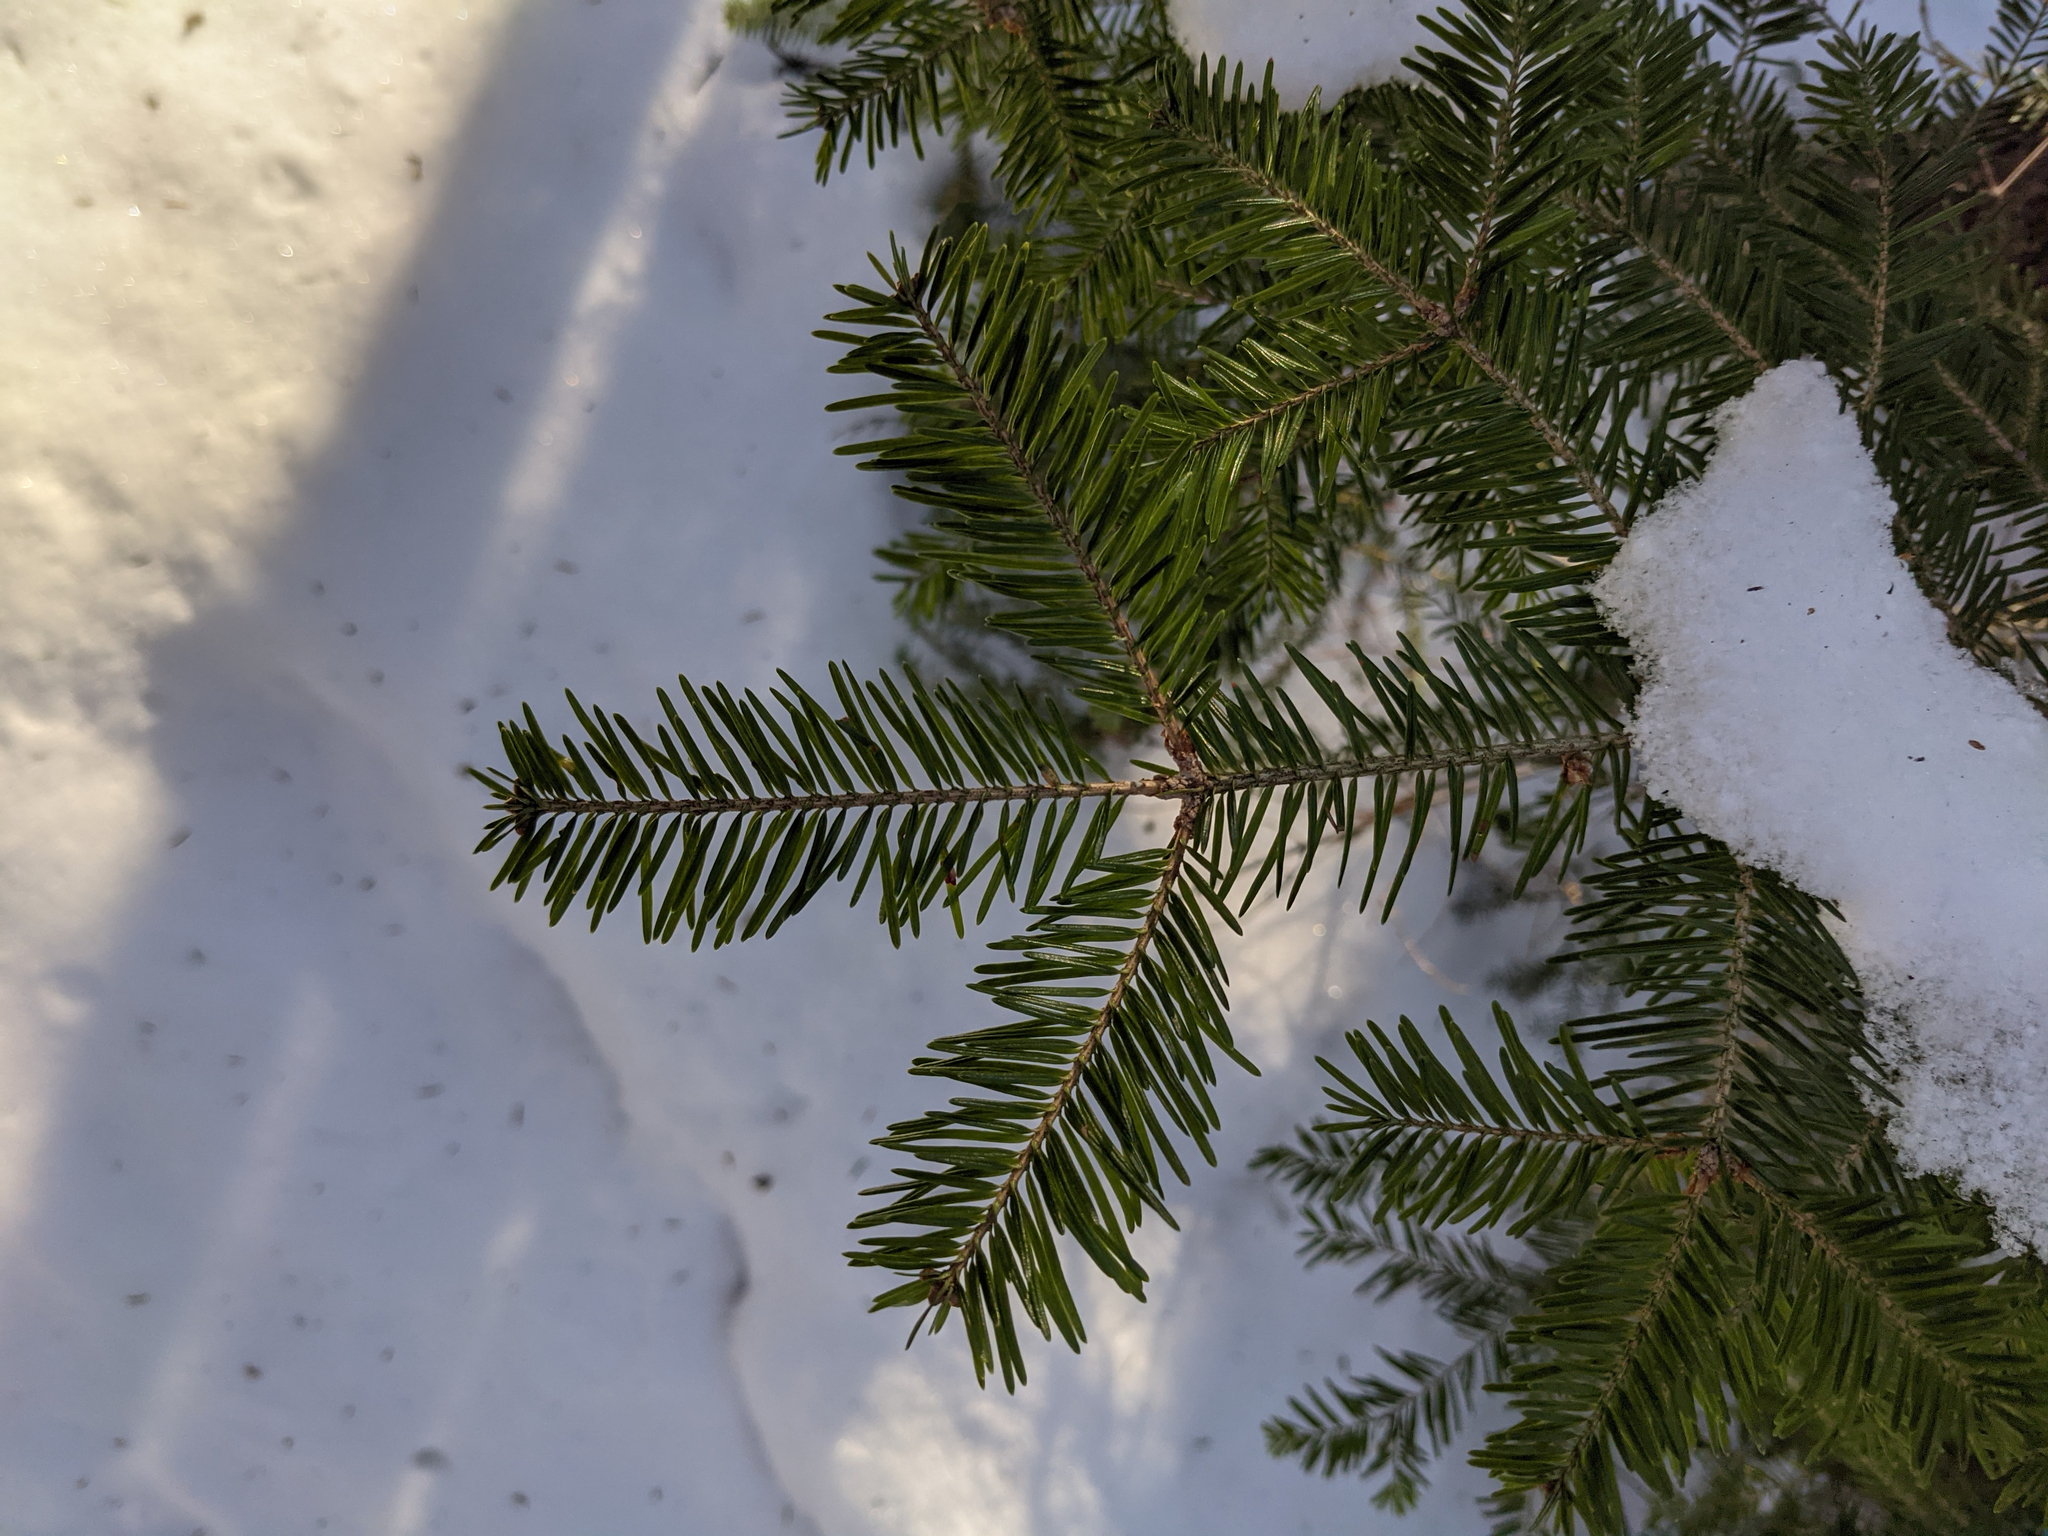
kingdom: Plantae
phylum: Tracheophyta
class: Pinopsida
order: Pinales
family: Pinaceae
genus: Abies
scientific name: Abies balsamea
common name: Balsam fir
